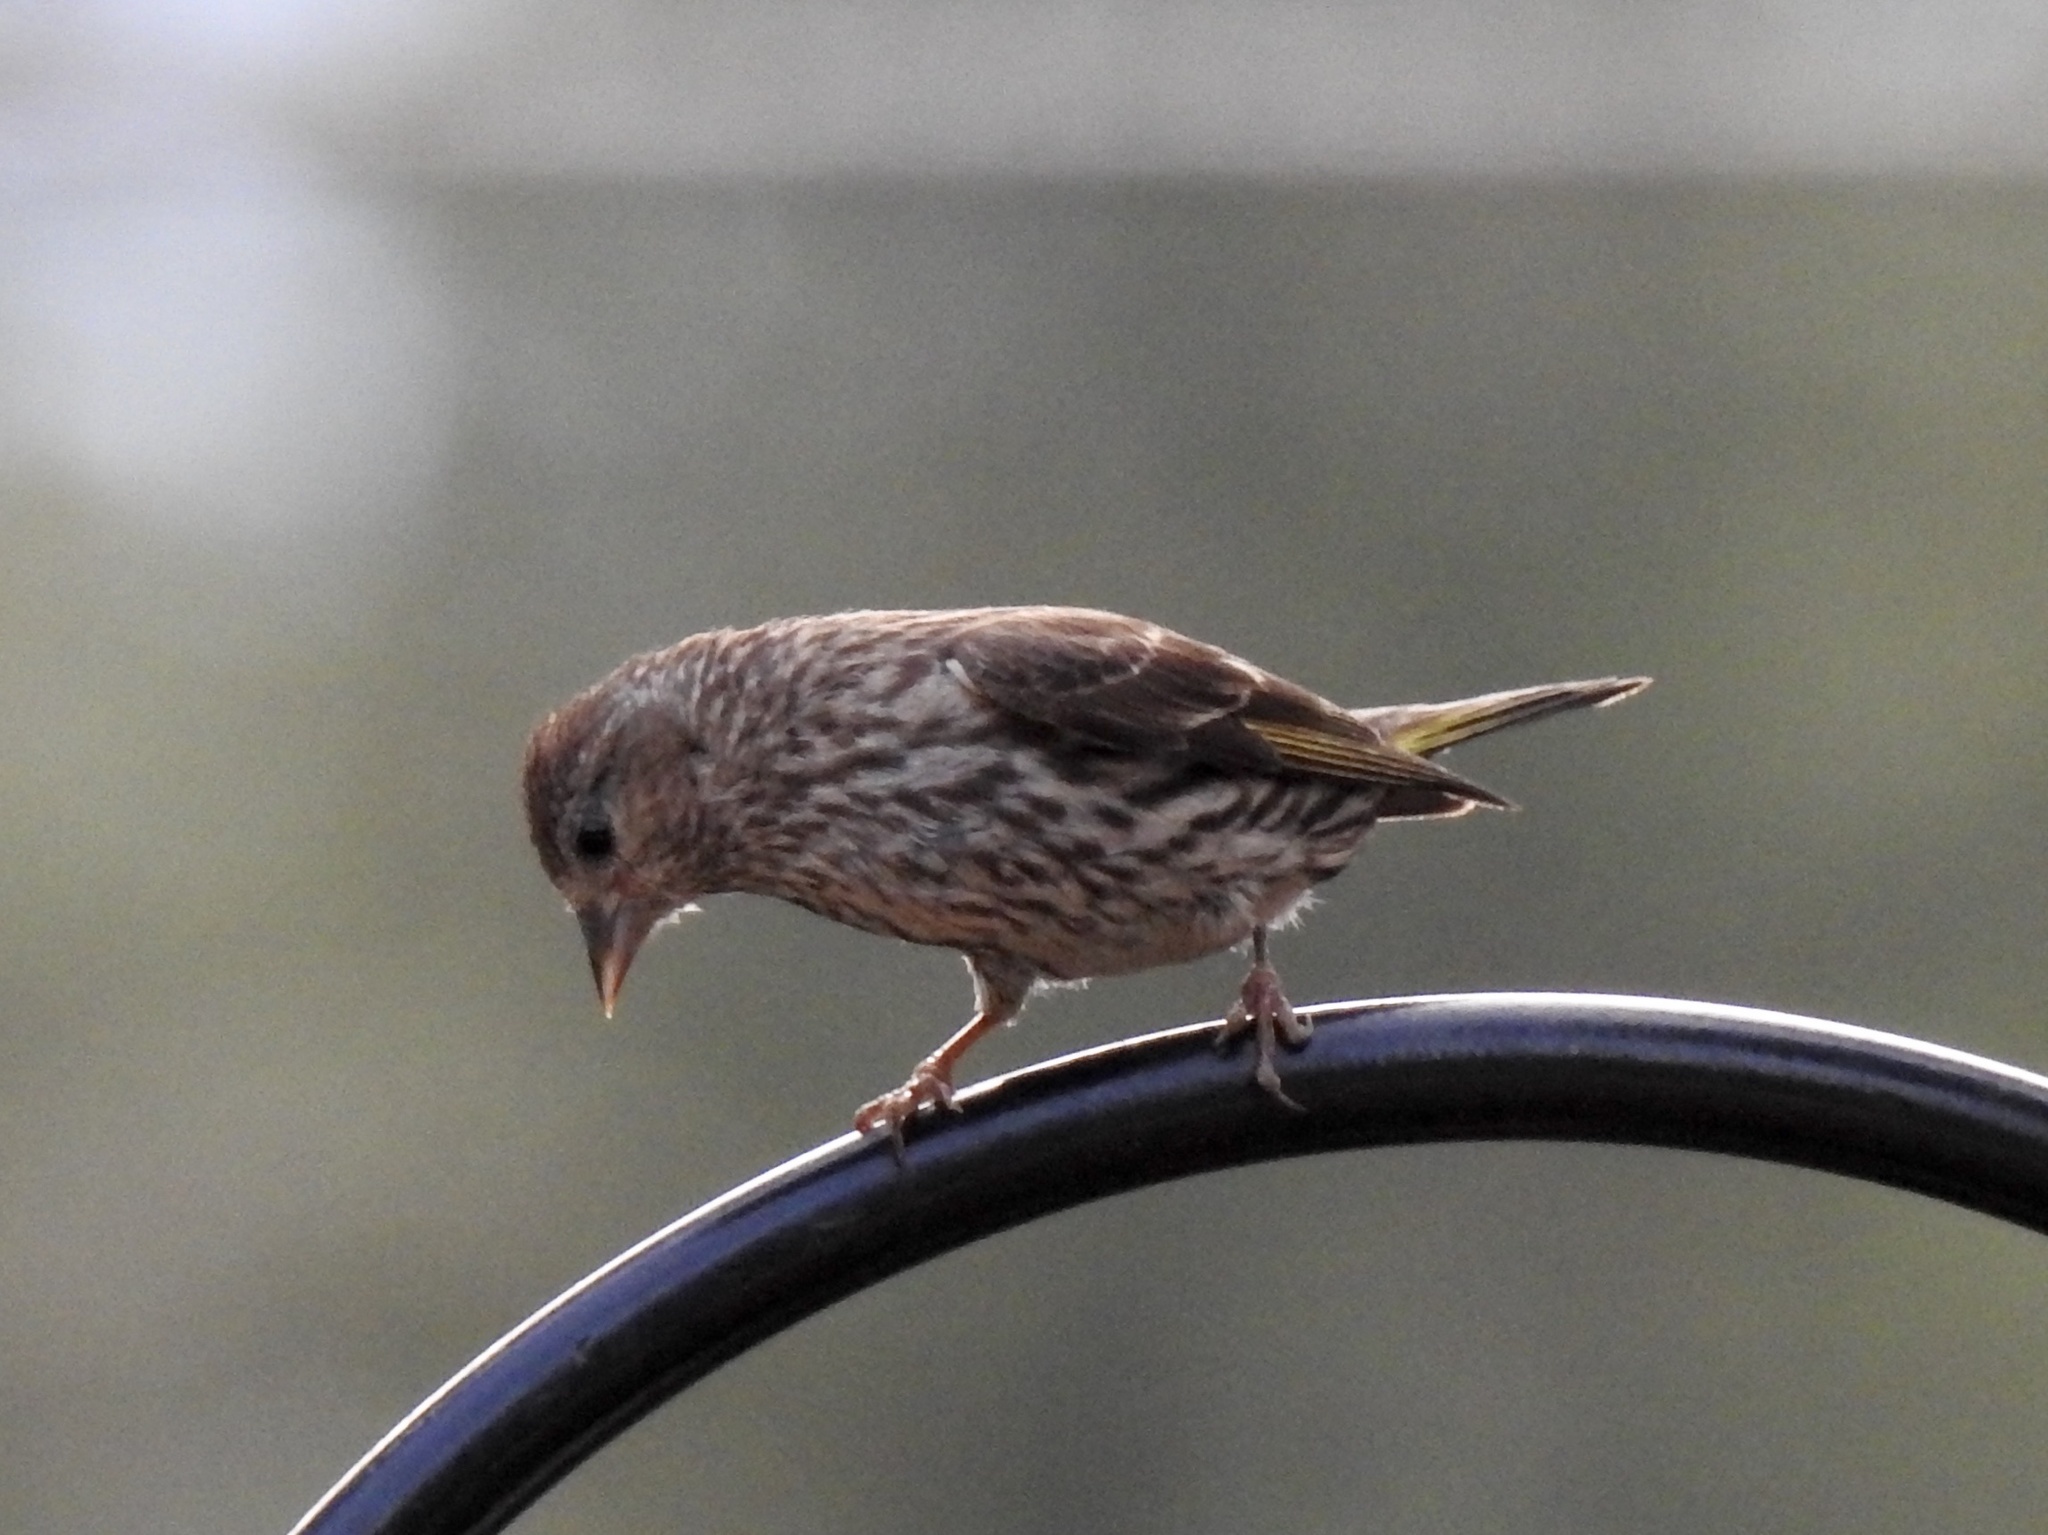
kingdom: Animalia
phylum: Chordata
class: Aves
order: Passeriformes
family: Fringillidae
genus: Spinus
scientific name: Spinus pinus
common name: Pine siskin
